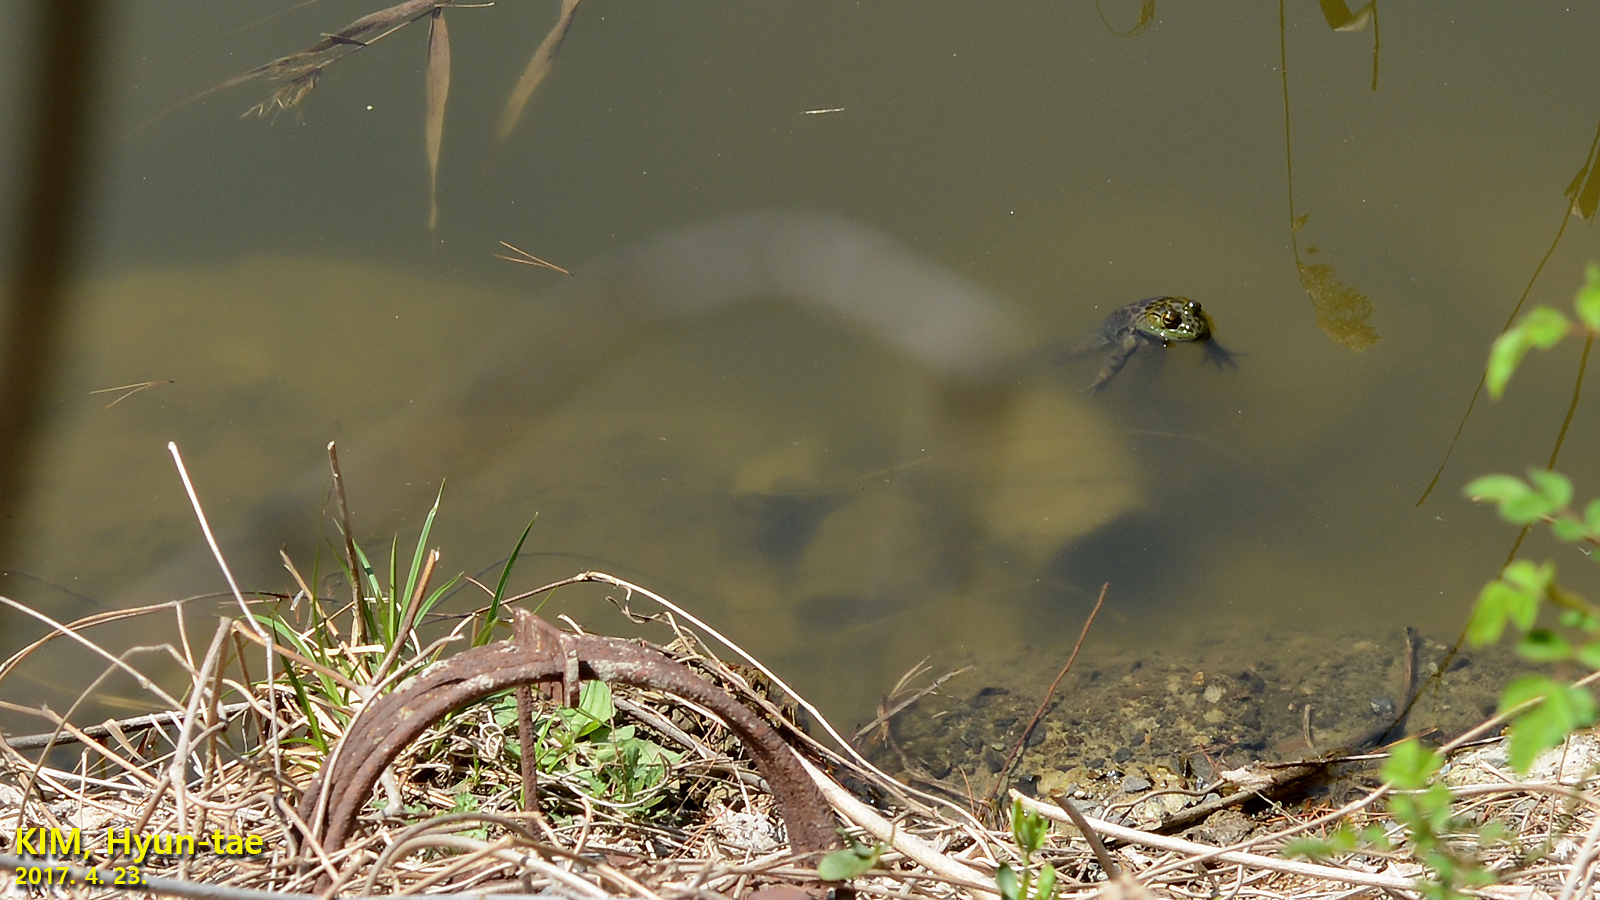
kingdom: Animalia
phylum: Chordata
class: Amphibia
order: Anura
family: Ranidae
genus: Lithobates
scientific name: Lithobates catesbeianus
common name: American bullfrog
